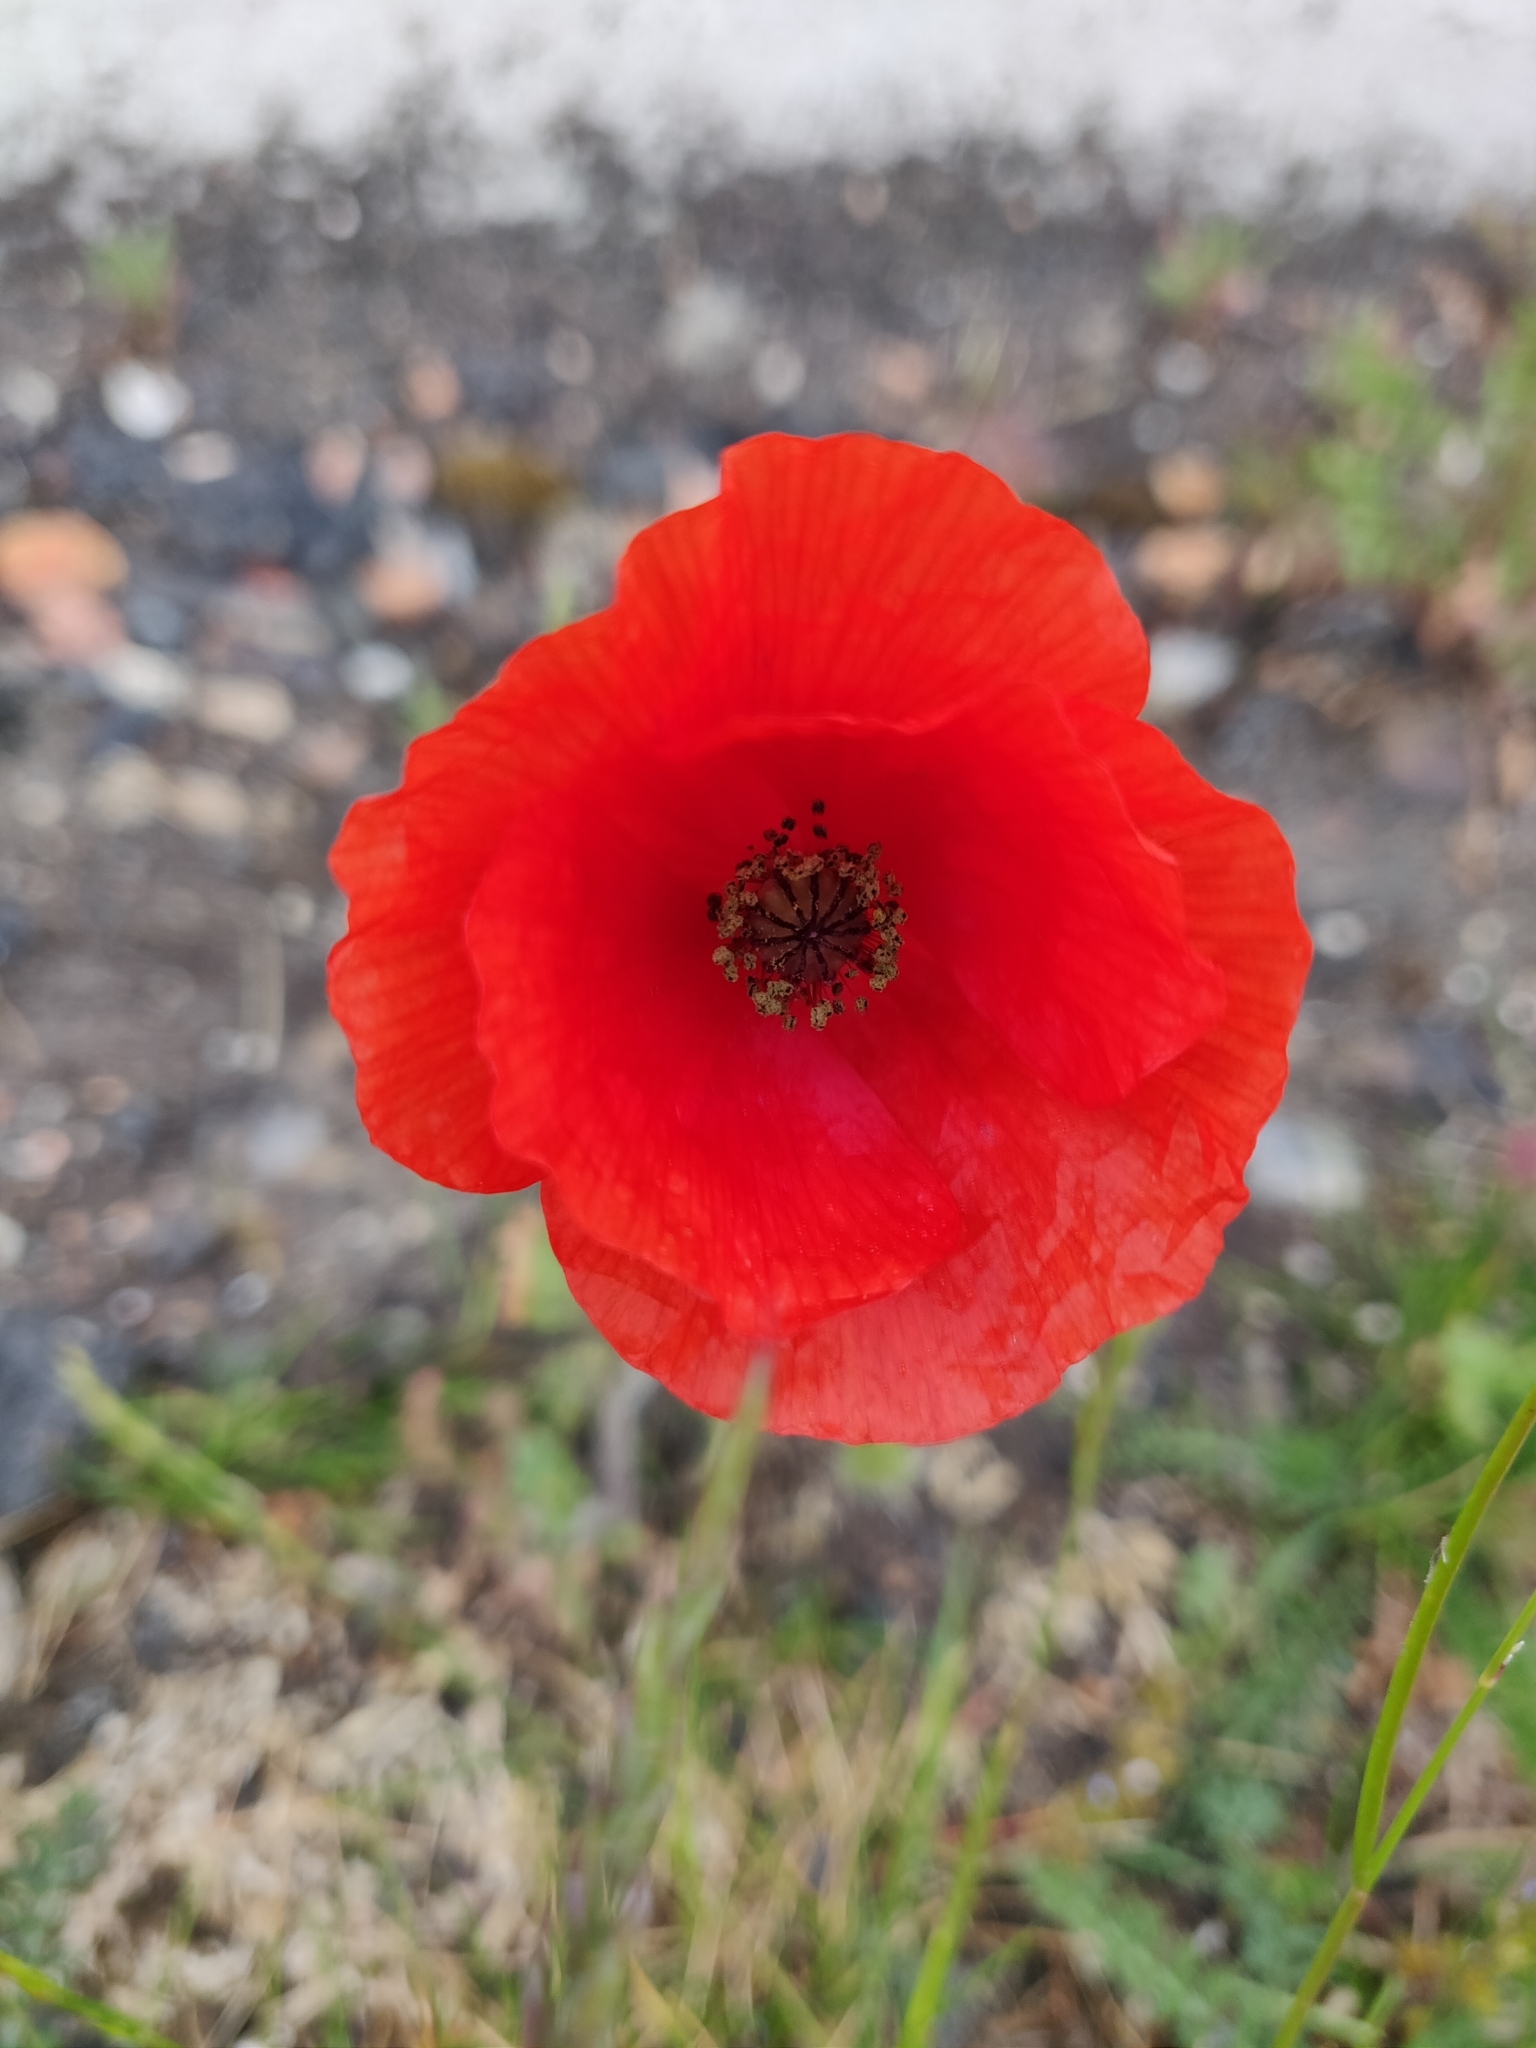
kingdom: Plantae
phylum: Tracheophyta
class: Magnoliopsida
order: Ranunculales
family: Papaveraceae
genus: Papaver
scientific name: Papaver rhoeas
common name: Corn poppy
